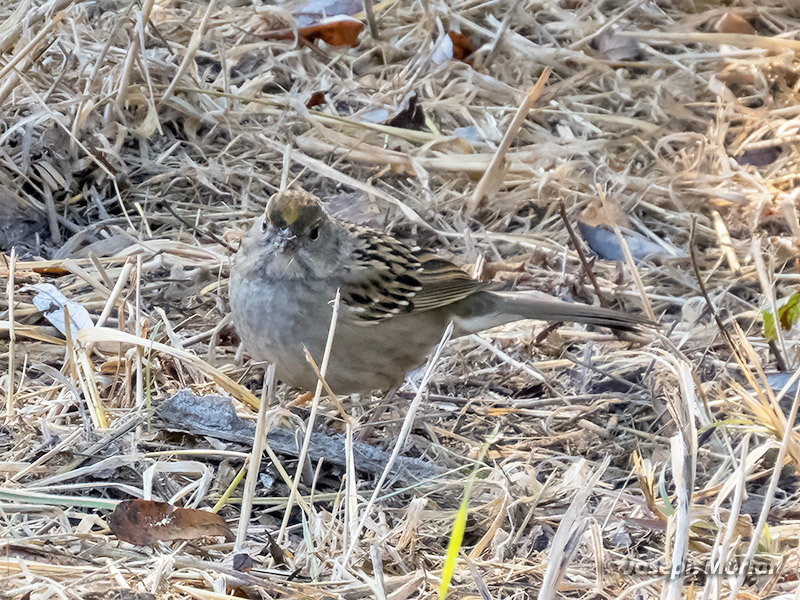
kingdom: Animalia
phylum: Chordata
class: Aves
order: Passeriformes
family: Passerellidae
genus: Zonotrichia
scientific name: Zonotrichia atricapilla
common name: Golden-crowned sparrow
